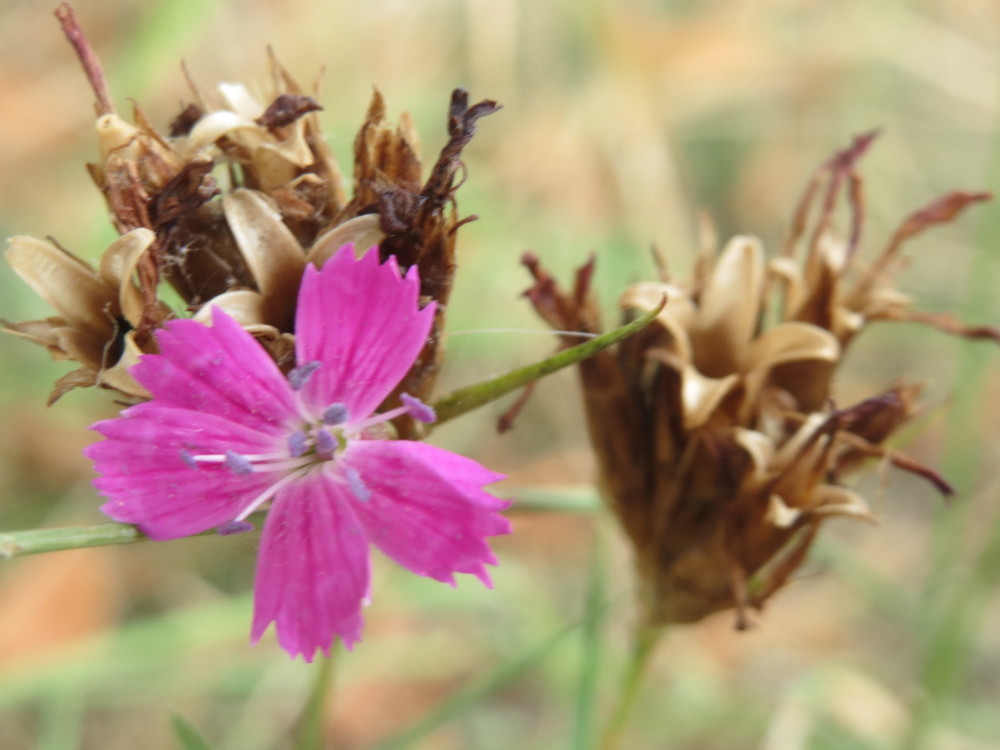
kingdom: Plantae
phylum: Tracheophyta
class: Magnoliopsida
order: Caryophyllales
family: Caryophyllaceae
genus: Dianthus
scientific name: Dianthus carthusianorum
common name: Carthusian pink
